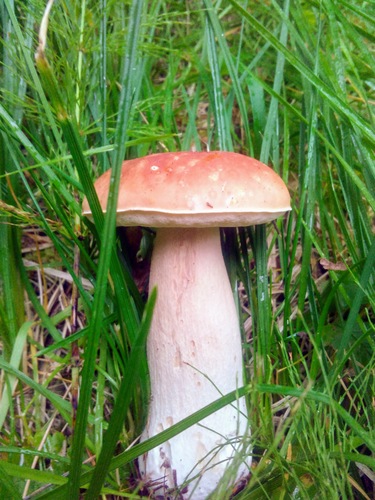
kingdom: Fungi
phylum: Basidiomycota
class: Agaricomycetes
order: Boletales
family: Boletaceae
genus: Boletus
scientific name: Boletus edulis
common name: Cep
